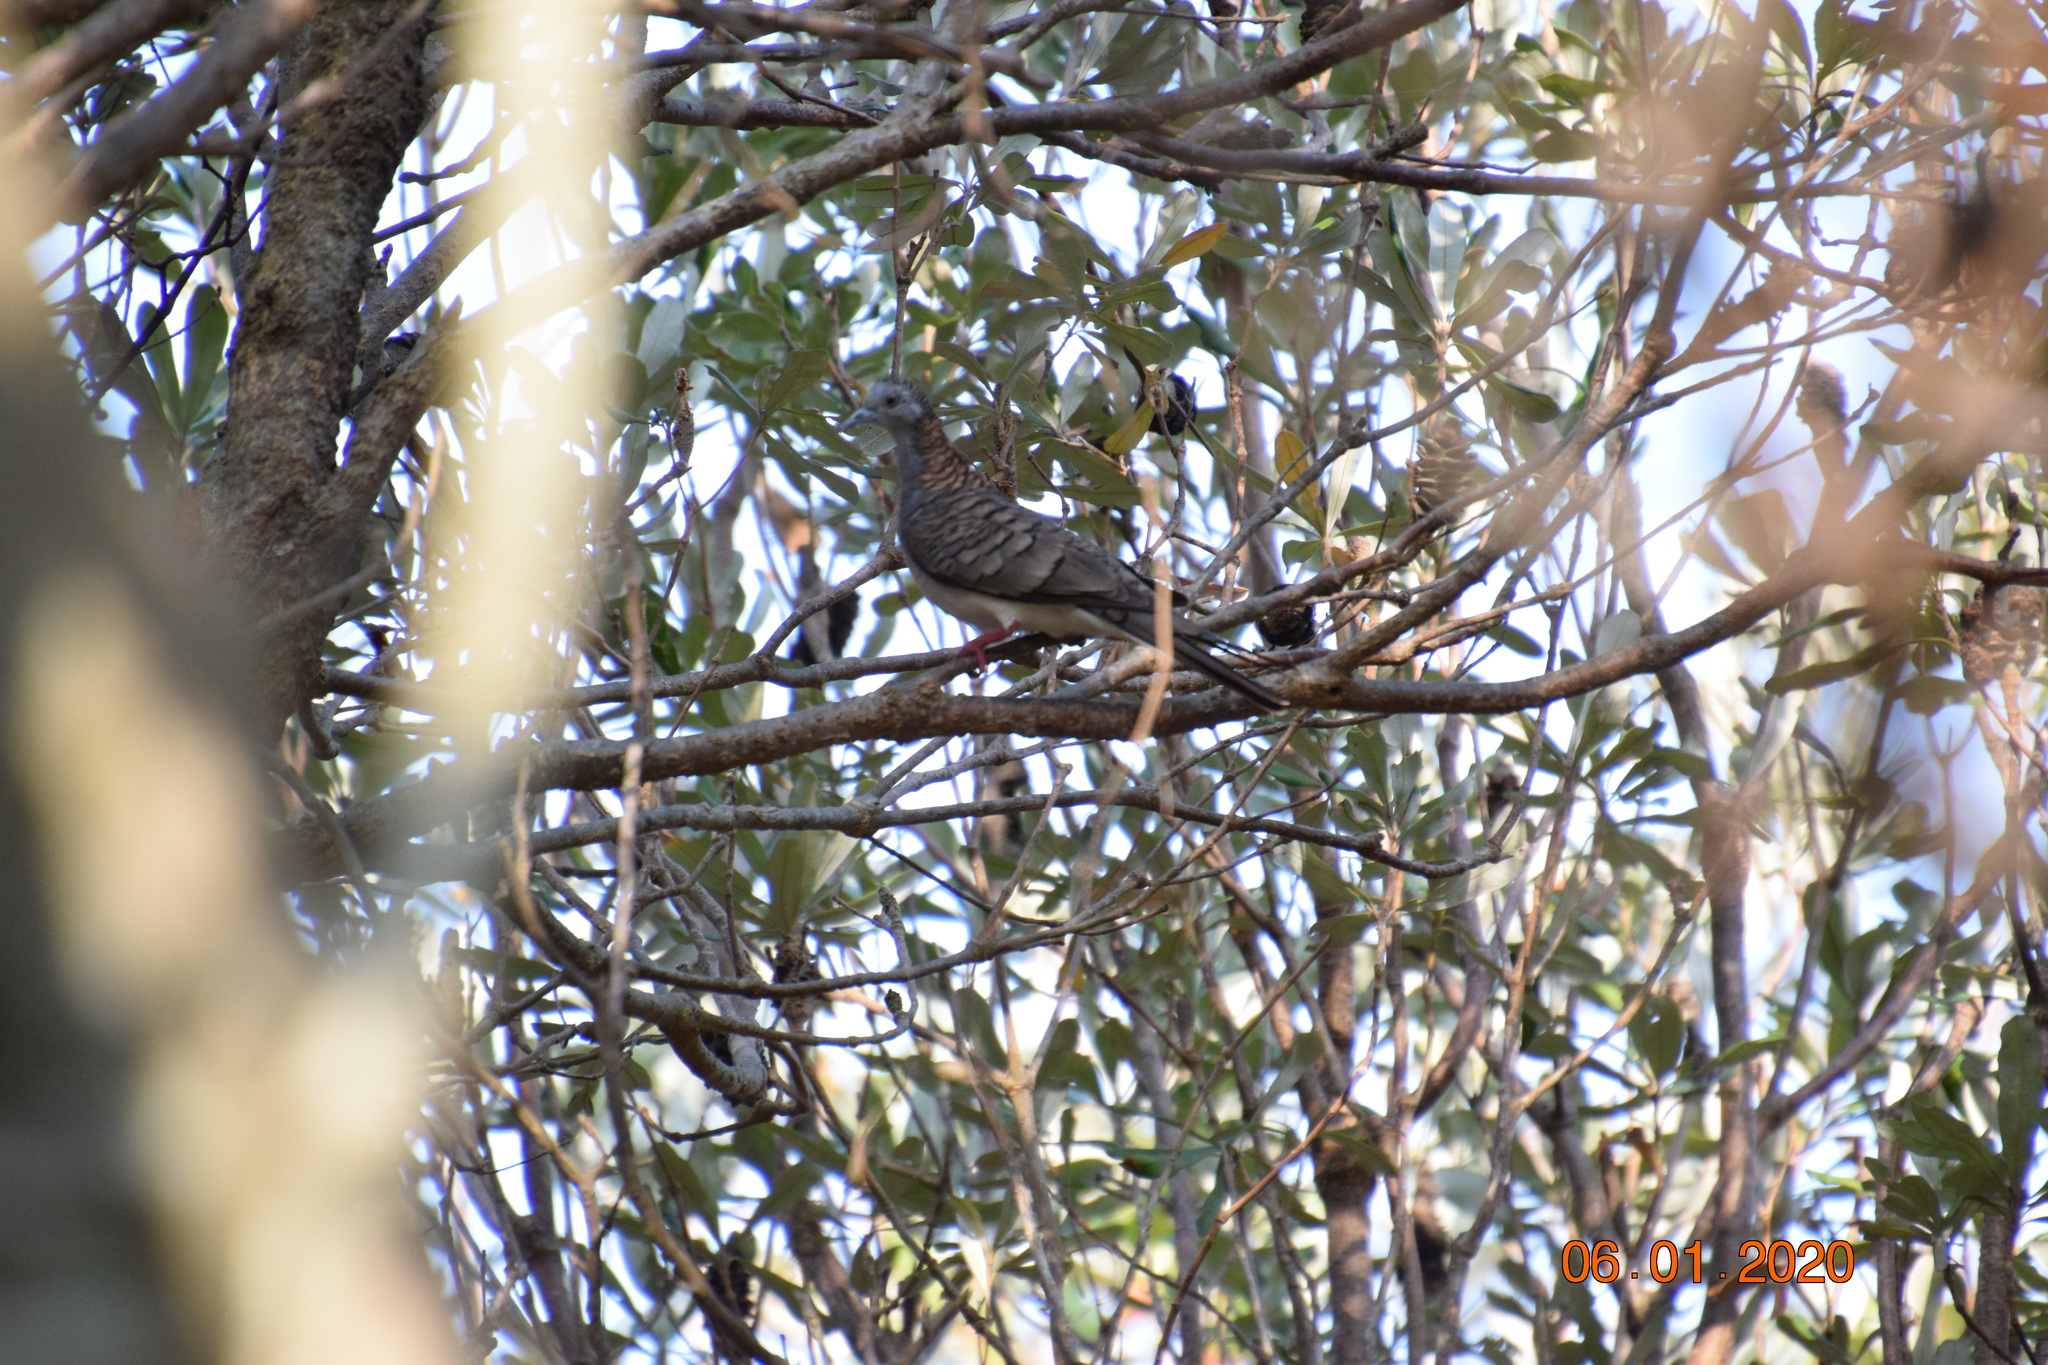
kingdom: Animalia
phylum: Chordata
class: Aves
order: Columbiformes
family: Columbidae
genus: Geopelia
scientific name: Geopelia humeralis
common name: Bar-shouldered dove
